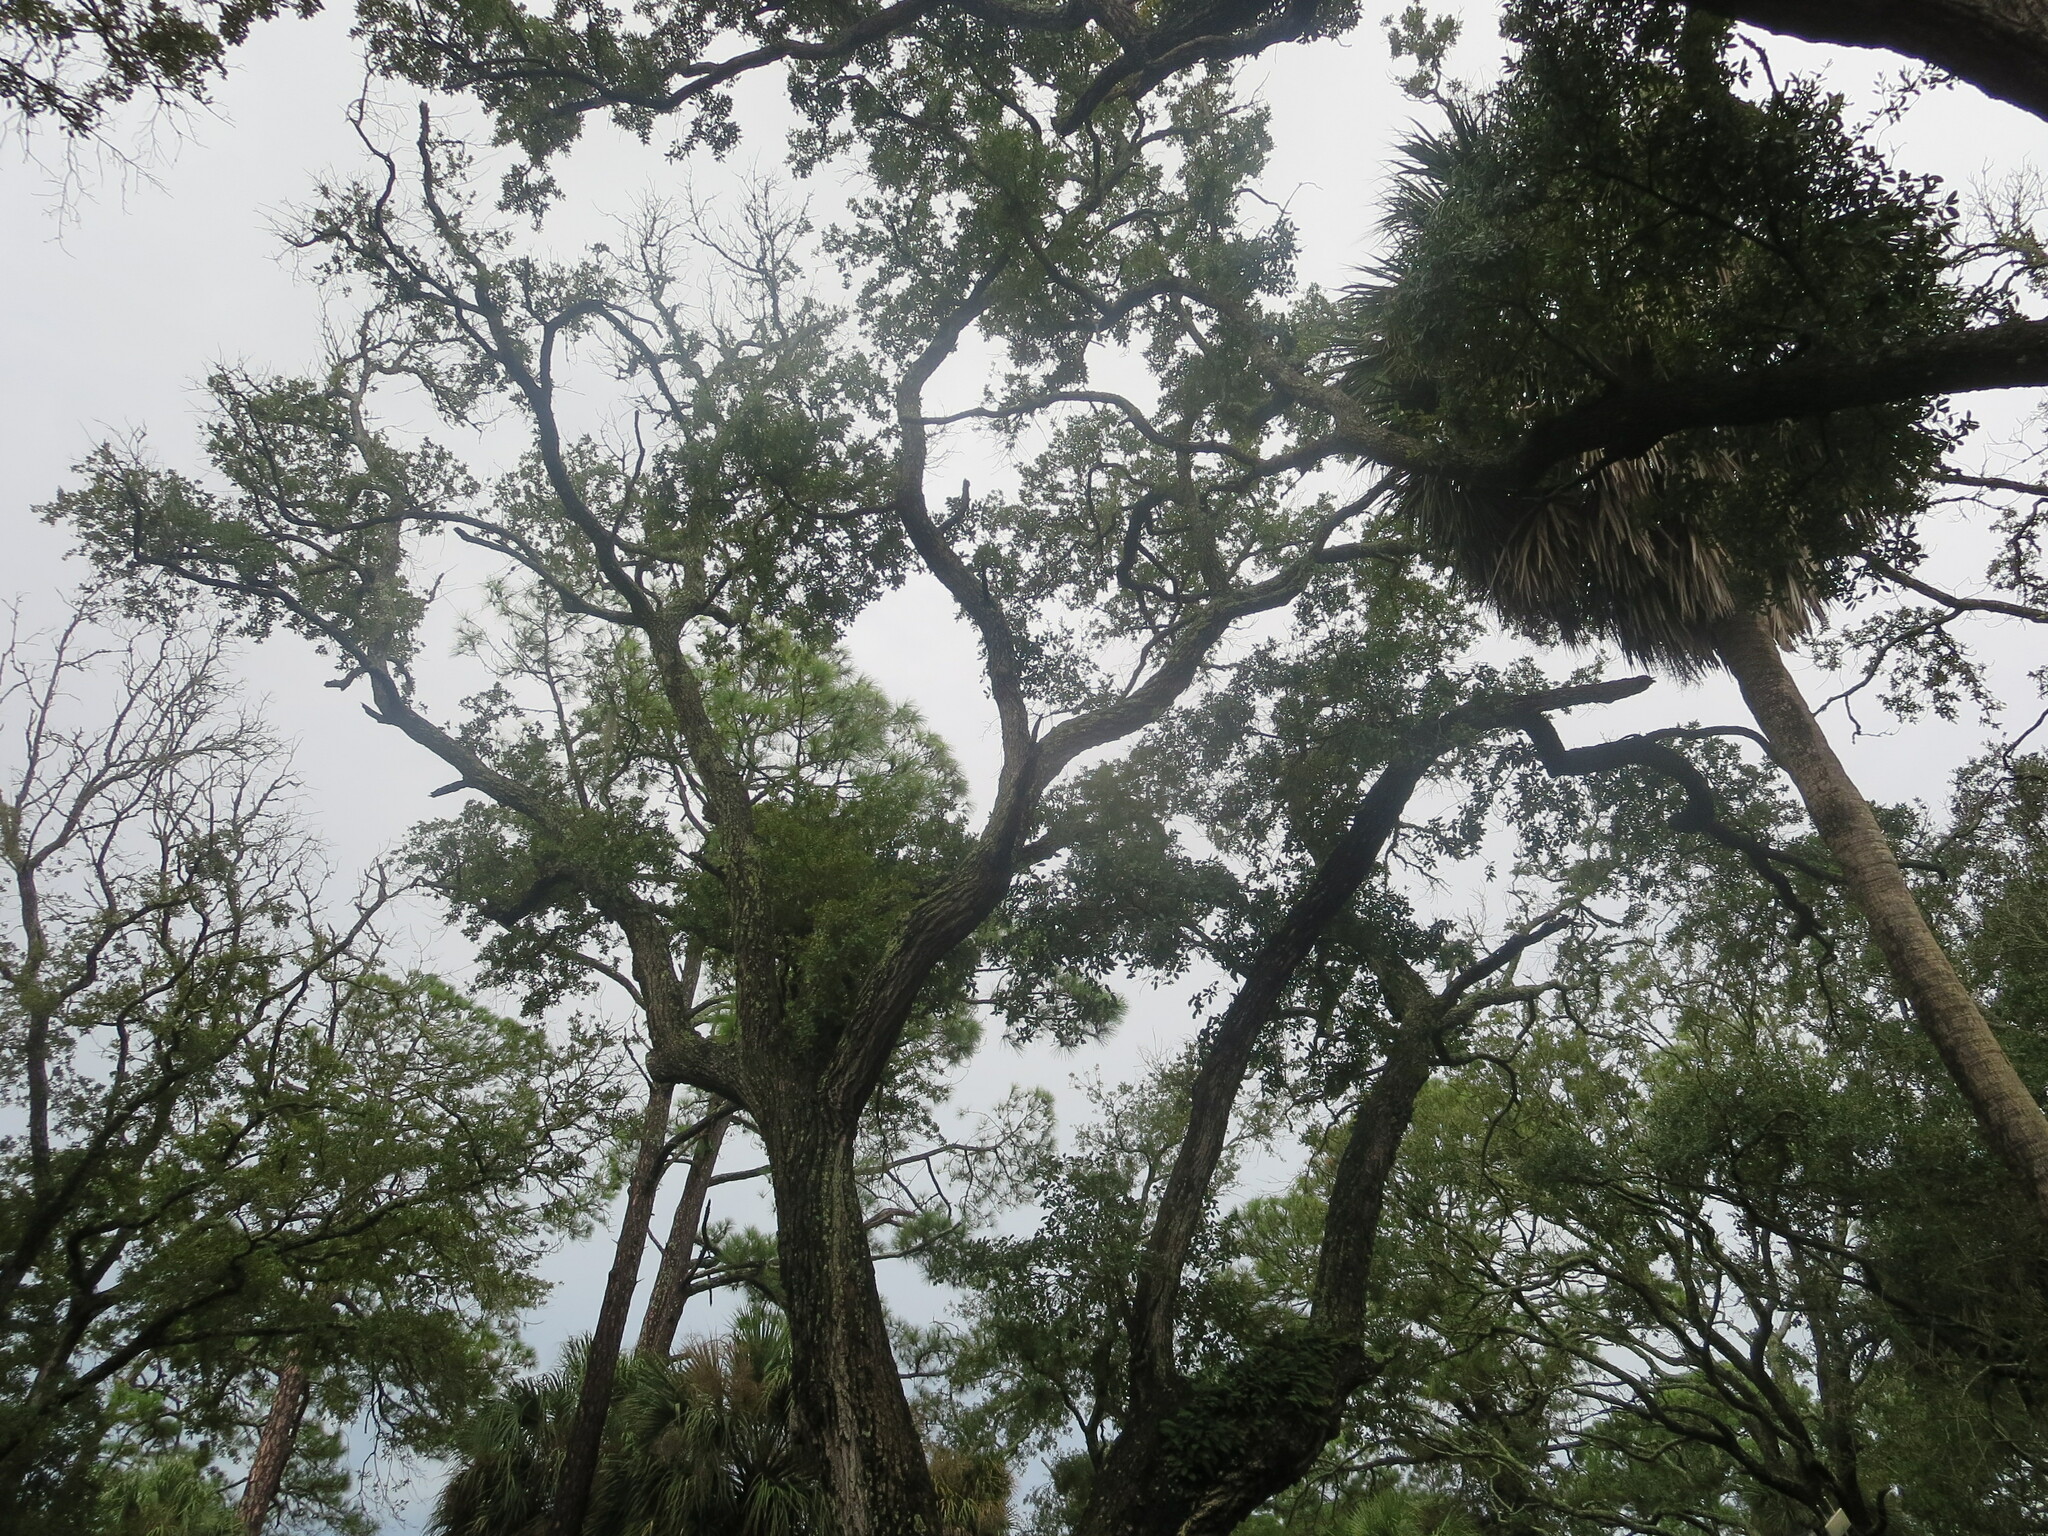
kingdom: Plantae
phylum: Tracheophyta
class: Magnoliopsida
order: Fagales
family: Fagaceae
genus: Quercus
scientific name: Quercus virginiana
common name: Southern live oak
